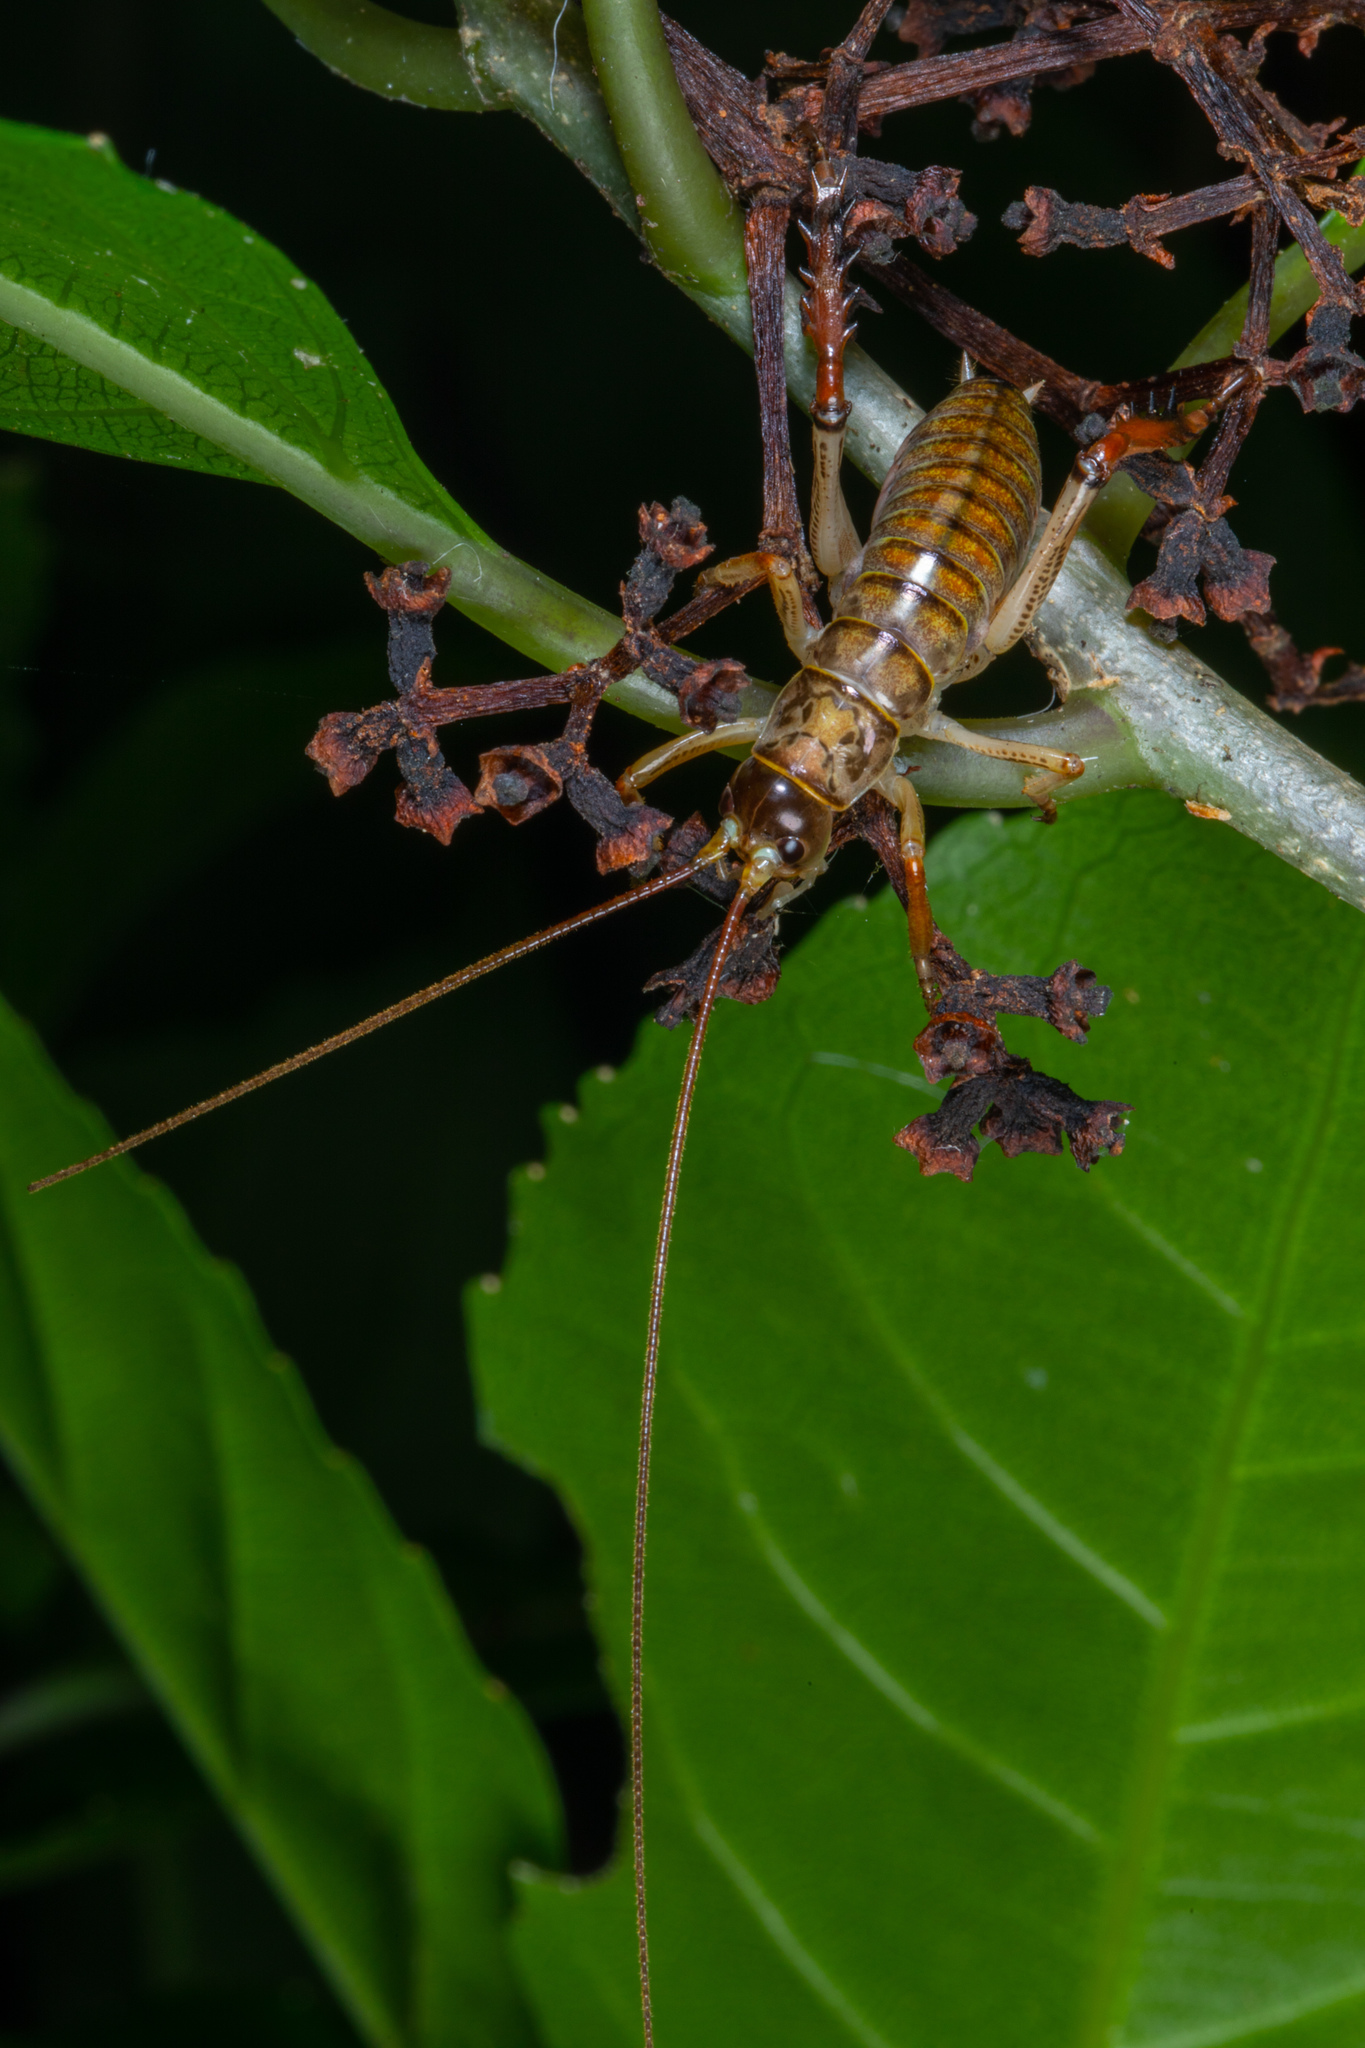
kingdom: Animalia
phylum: Arthropoda
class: Insecta
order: Orthoptera
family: Anostostomatidae
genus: Hemideina
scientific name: Hemideina thoracica
